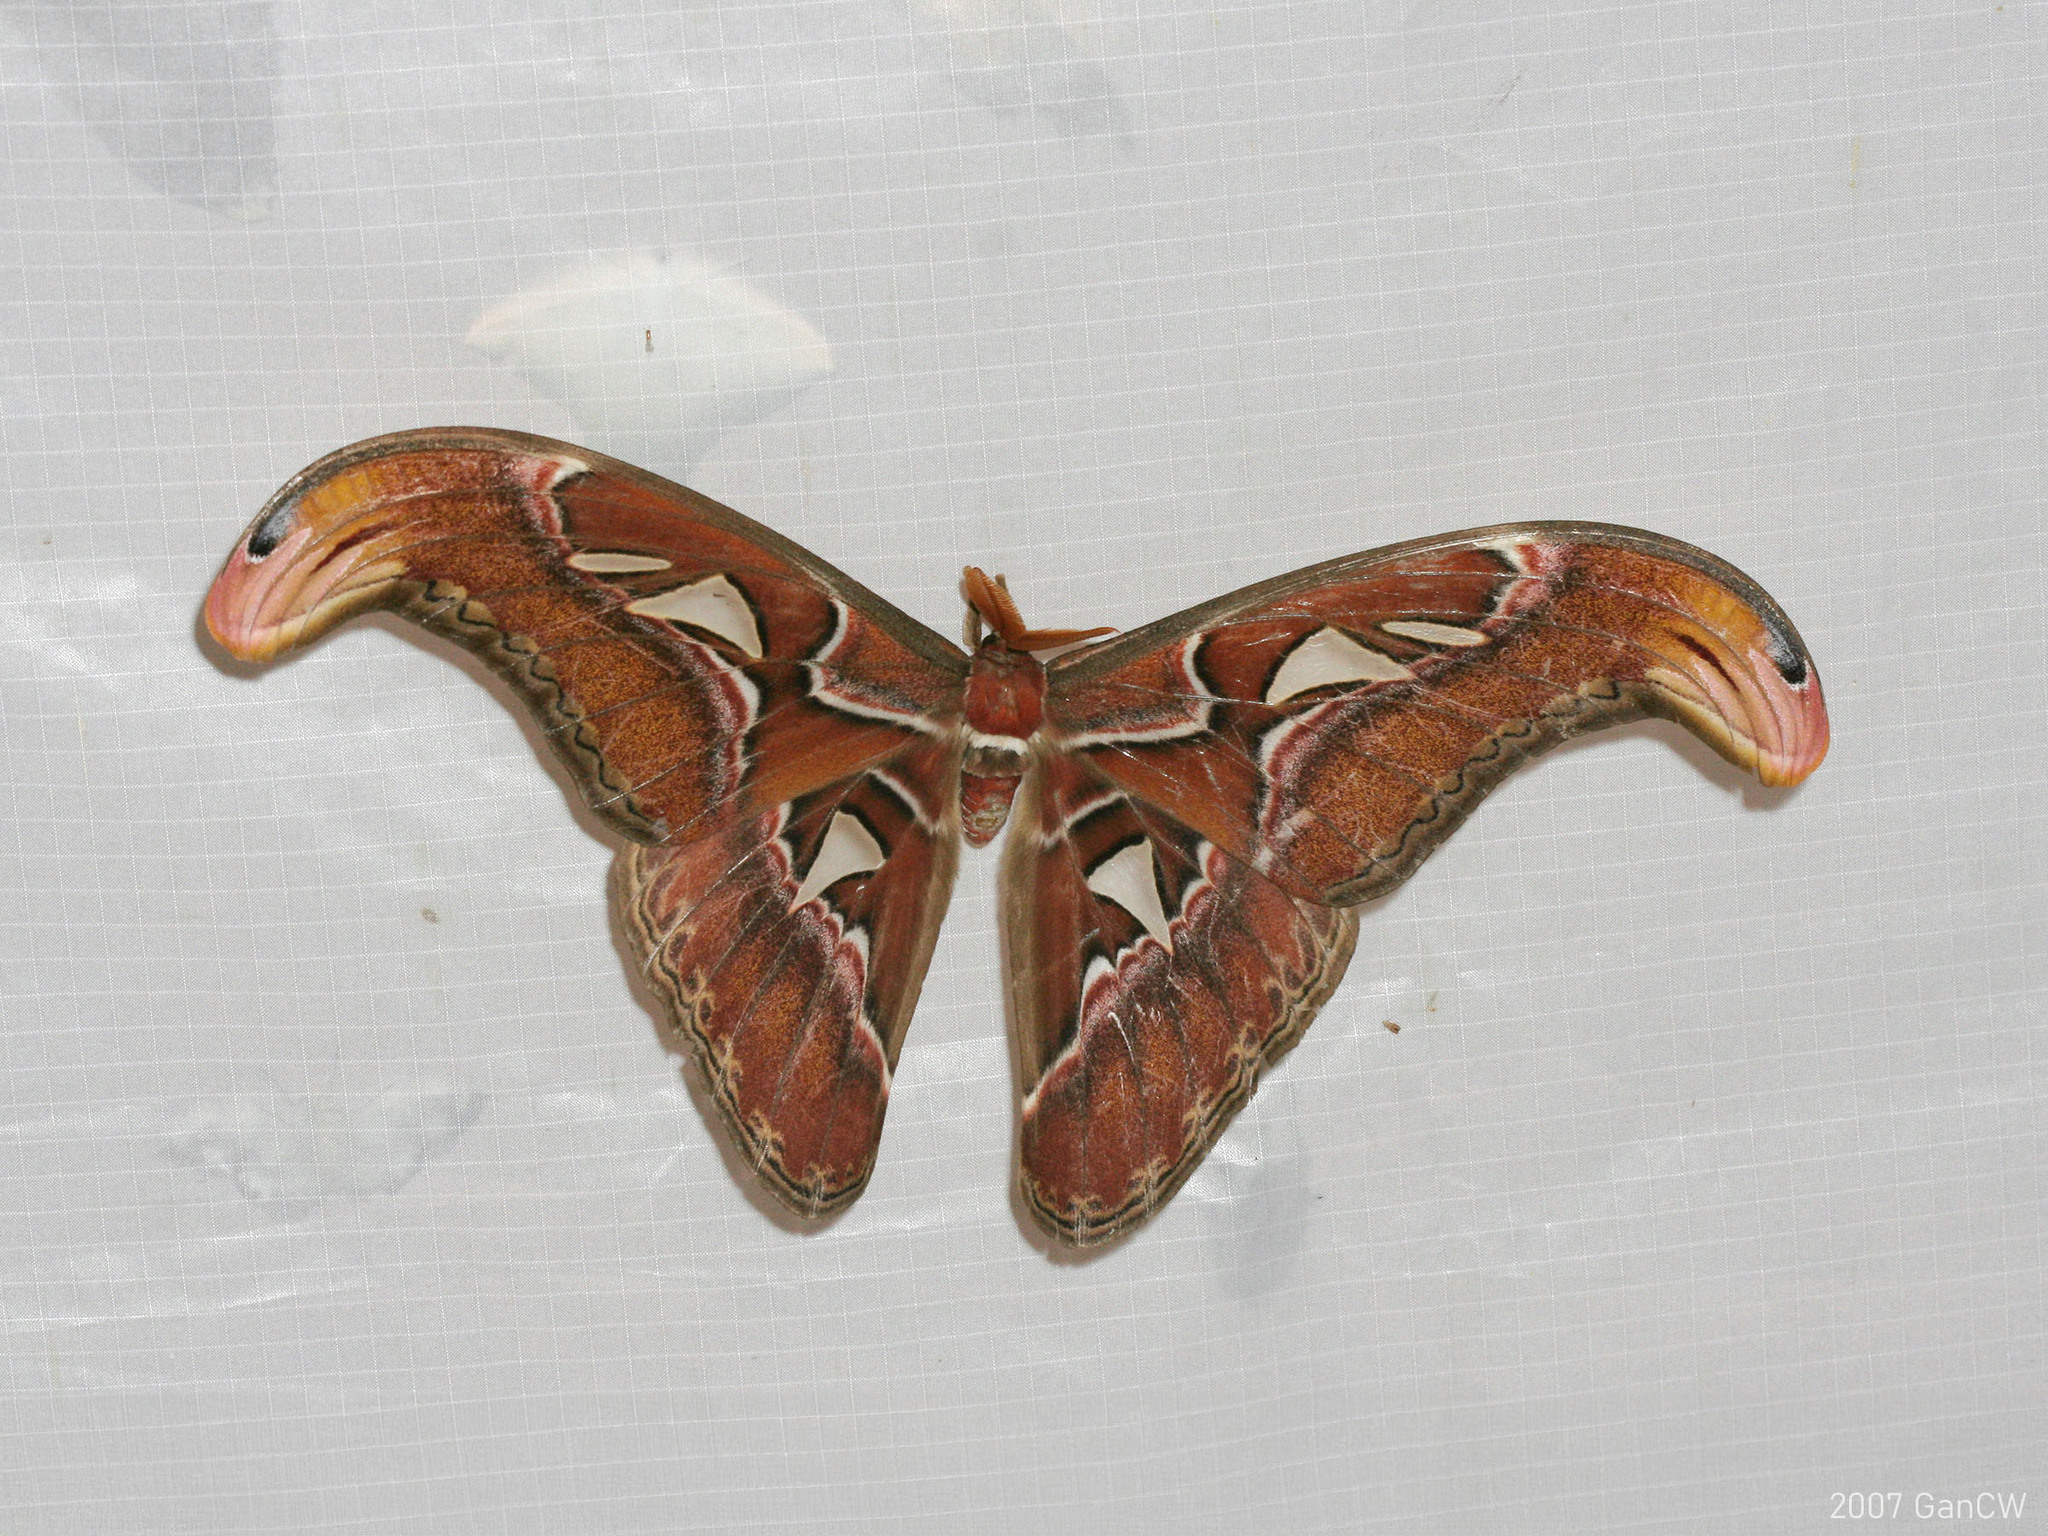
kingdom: Animalia
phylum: Arthropoda
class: Insecta
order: Lepidoptera
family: Saturniidae
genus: Attacus
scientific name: Attacus atlas
